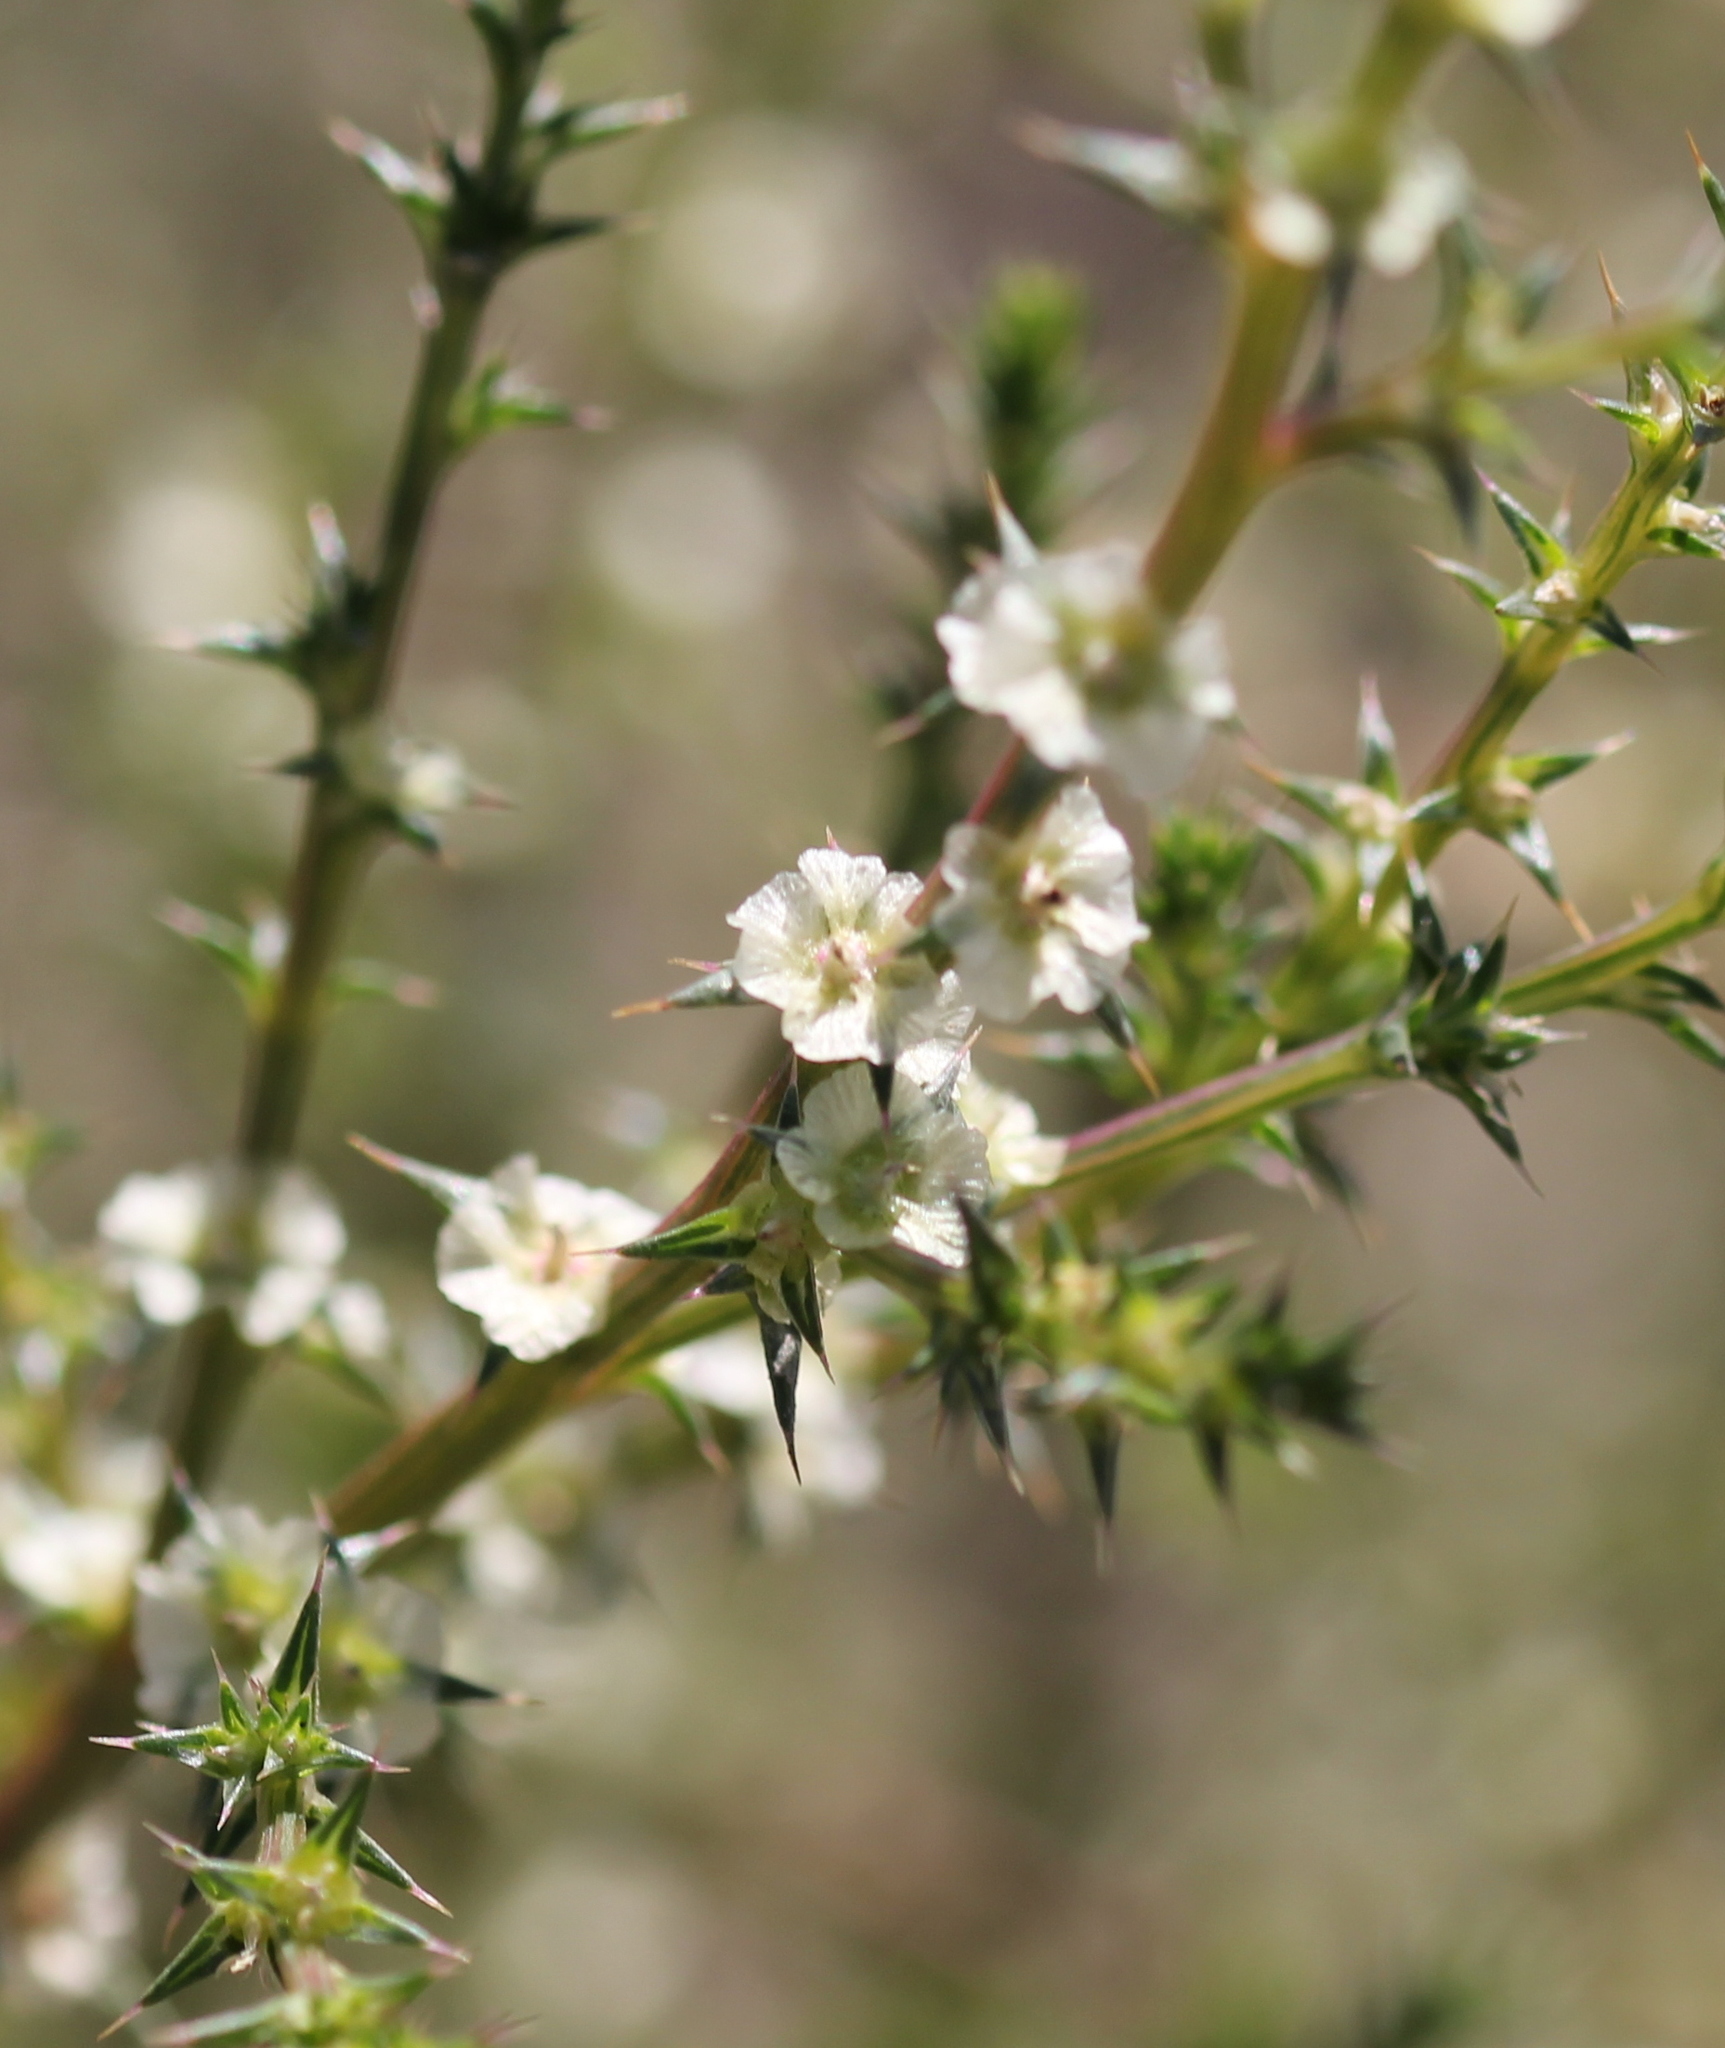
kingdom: Plantae
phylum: Tracheophyta
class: Magnoliopsida
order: Caryophyllales
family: Amaranthaceae
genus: Salsola
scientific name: Salsola australis
